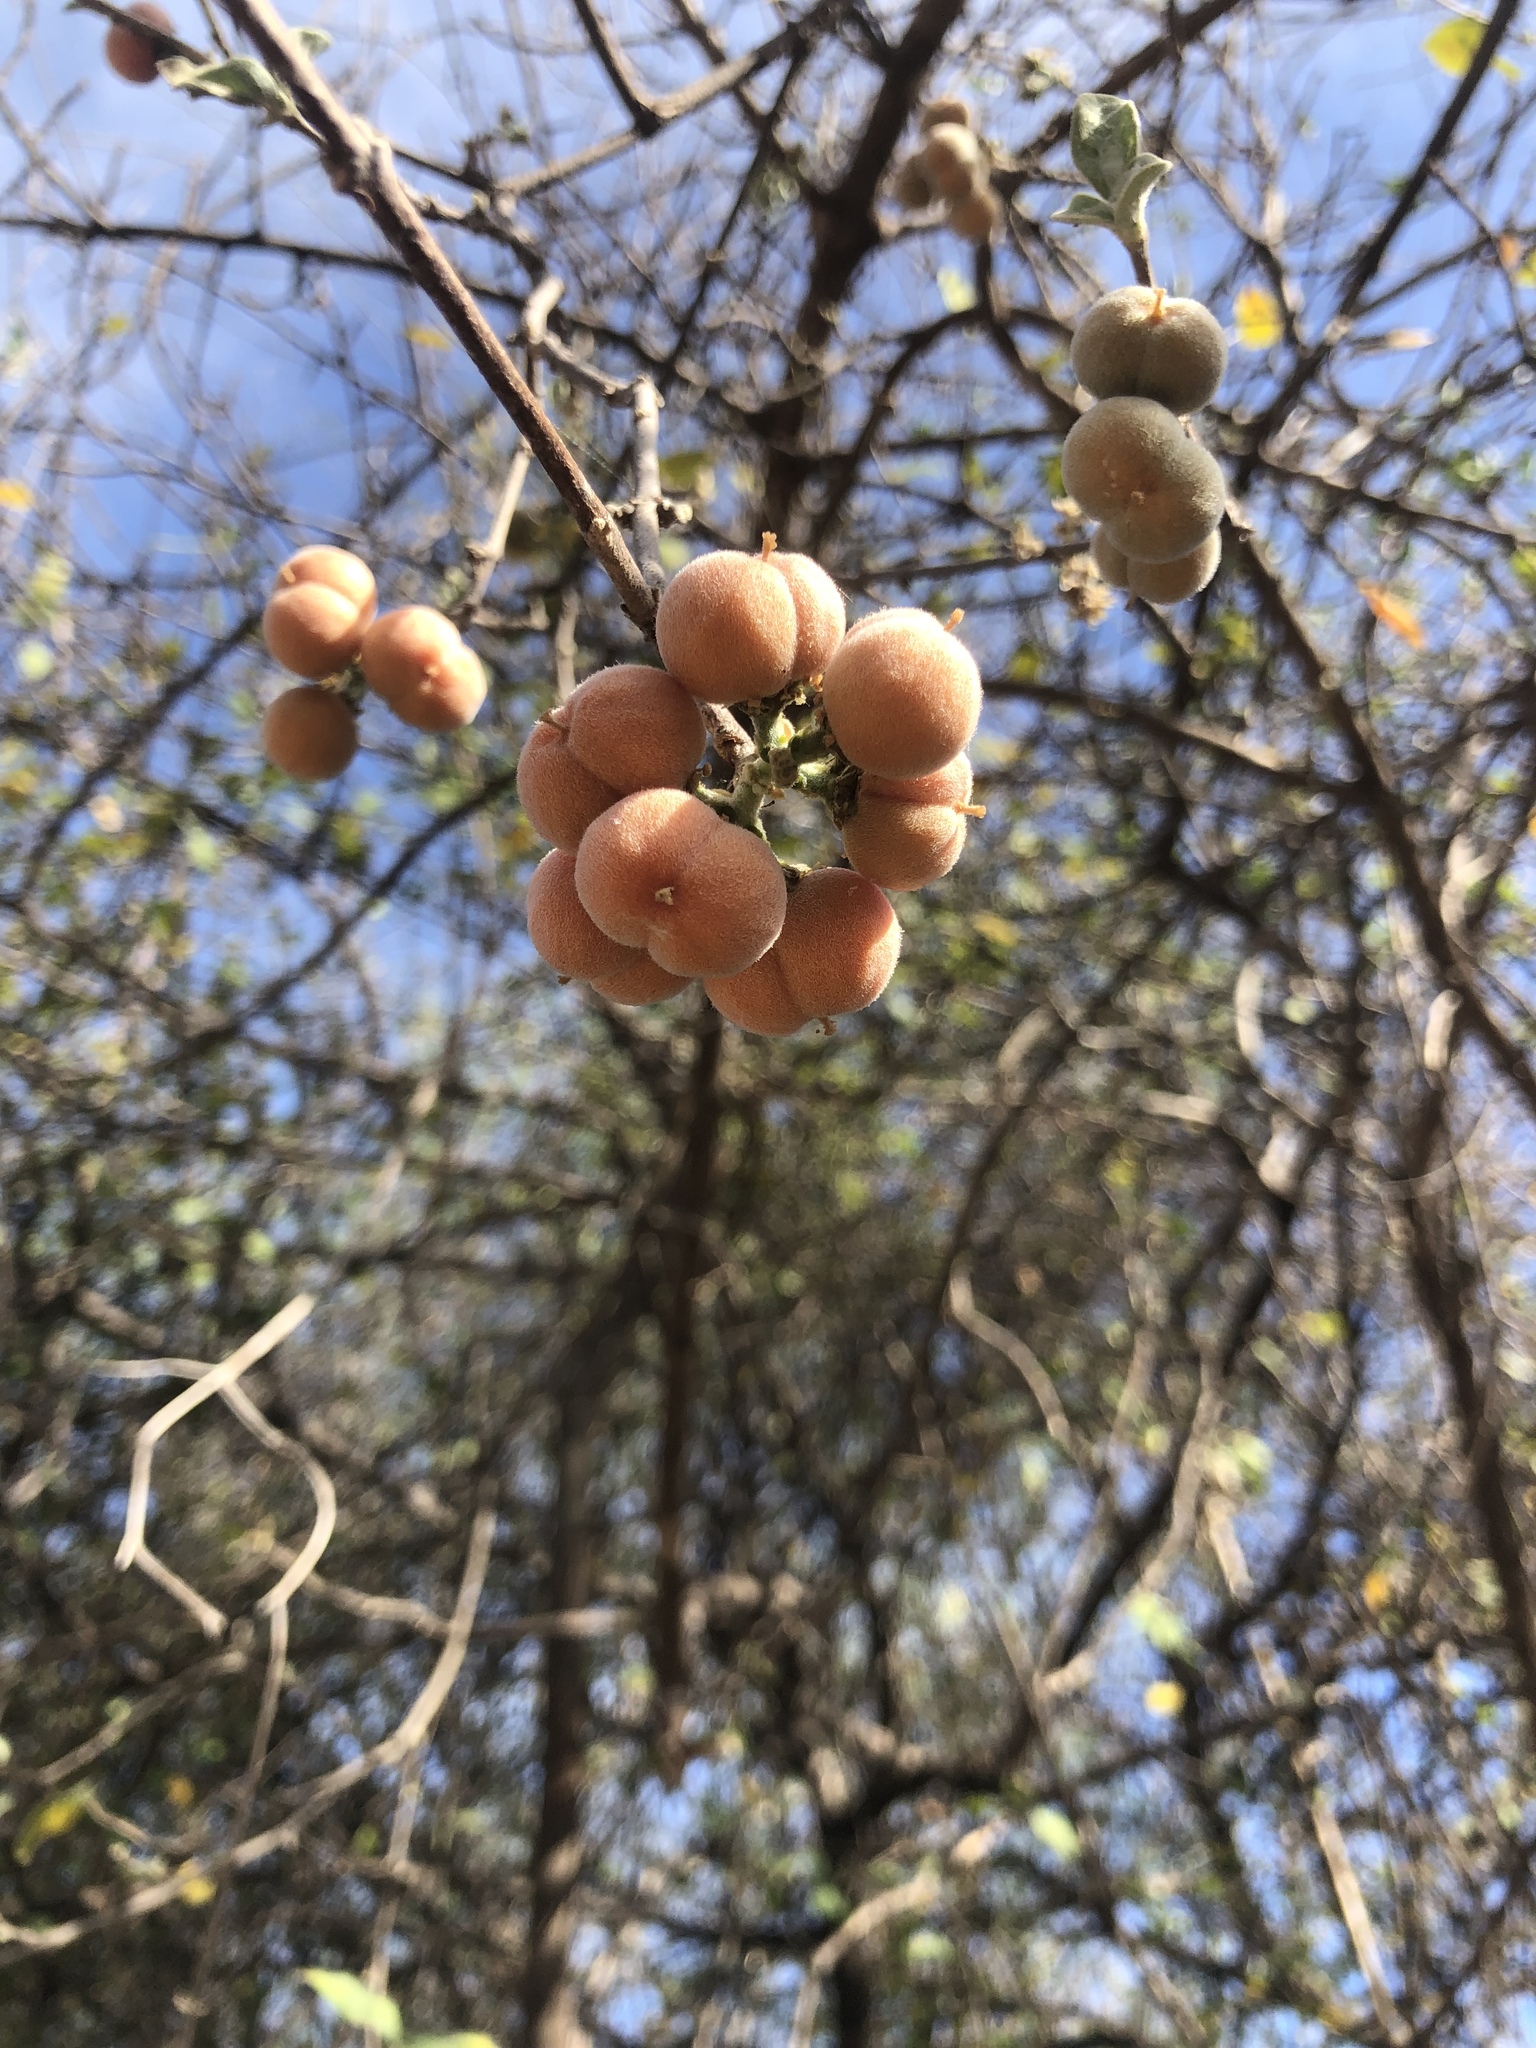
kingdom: Plantae
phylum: Tracheophyta
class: Magnoliopsida
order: Malpighiales
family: Malpighiaceae
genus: Bunchosia
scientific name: Bunchosia sonorensis
